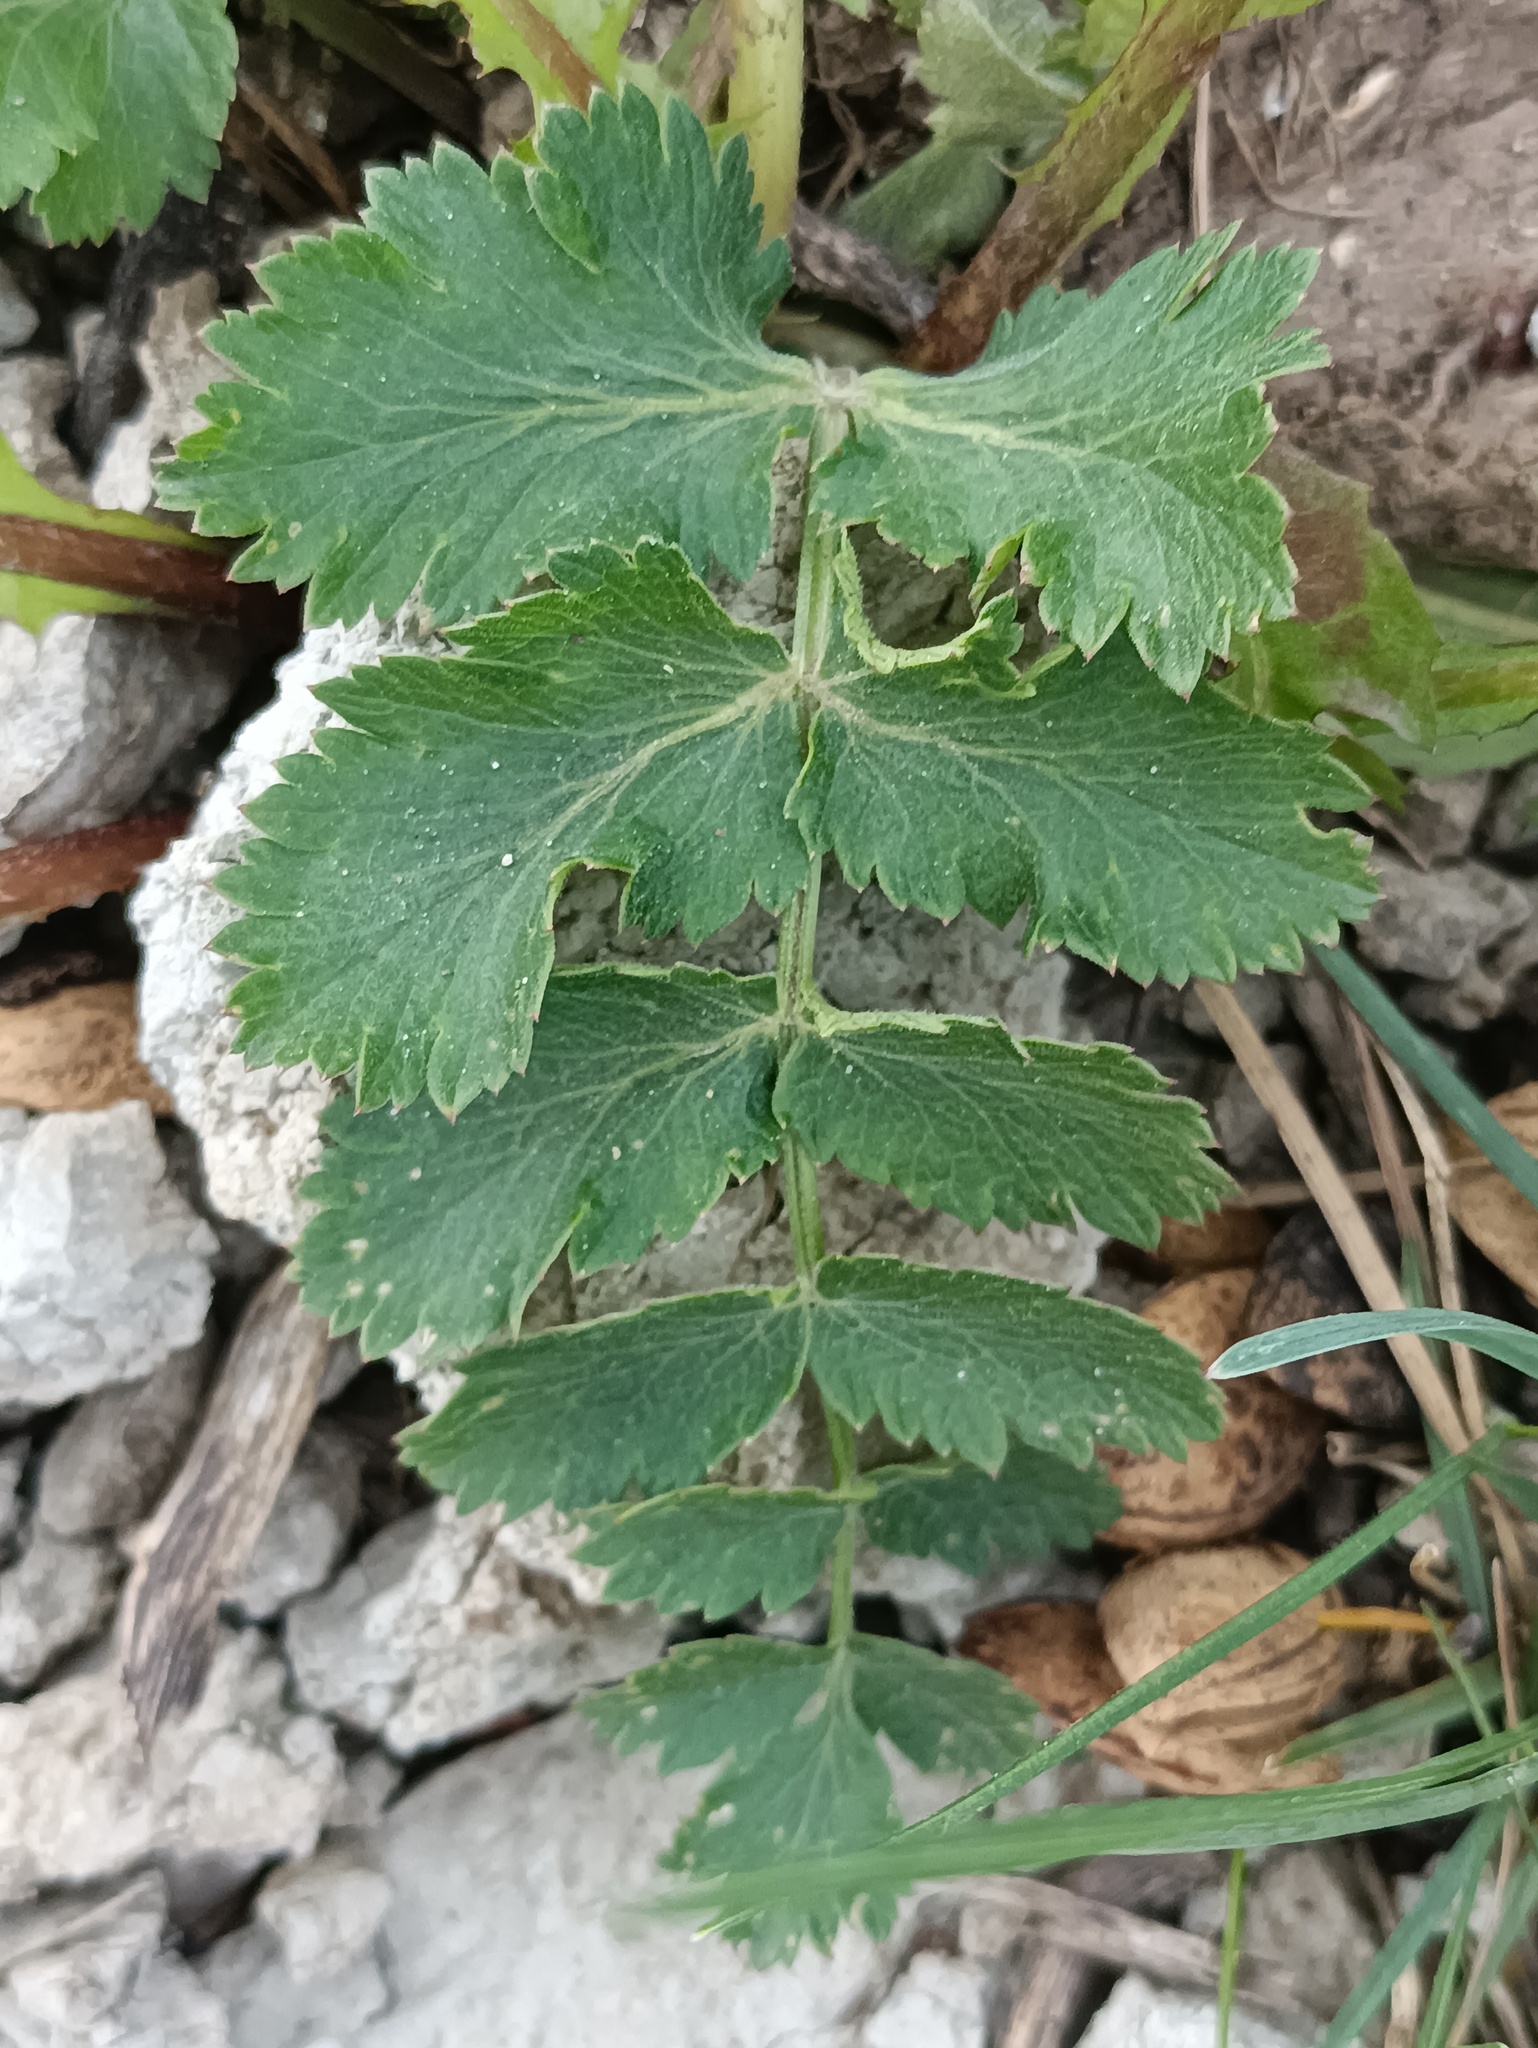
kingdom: Plantae
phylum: Tracheophyta
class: Magnoliopsida
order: Apiales
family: Apiaceae
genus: Pimpinella
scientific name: Pimpinella saxifraga
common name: Burnet-saxifrage
